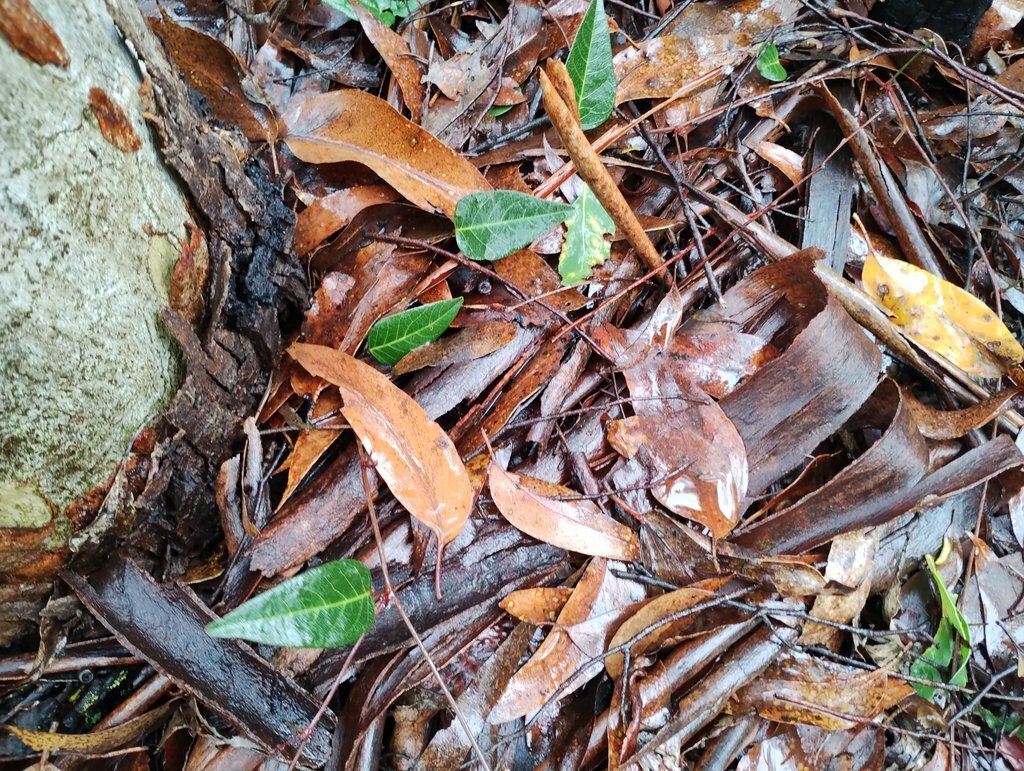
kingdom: Plantae
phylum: Tracheophyta
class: Magnoliopsida
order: Fabales
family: Fabaceae
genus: Hardenbergia
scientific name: Hardenbergia violacea
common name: Coral-pea
